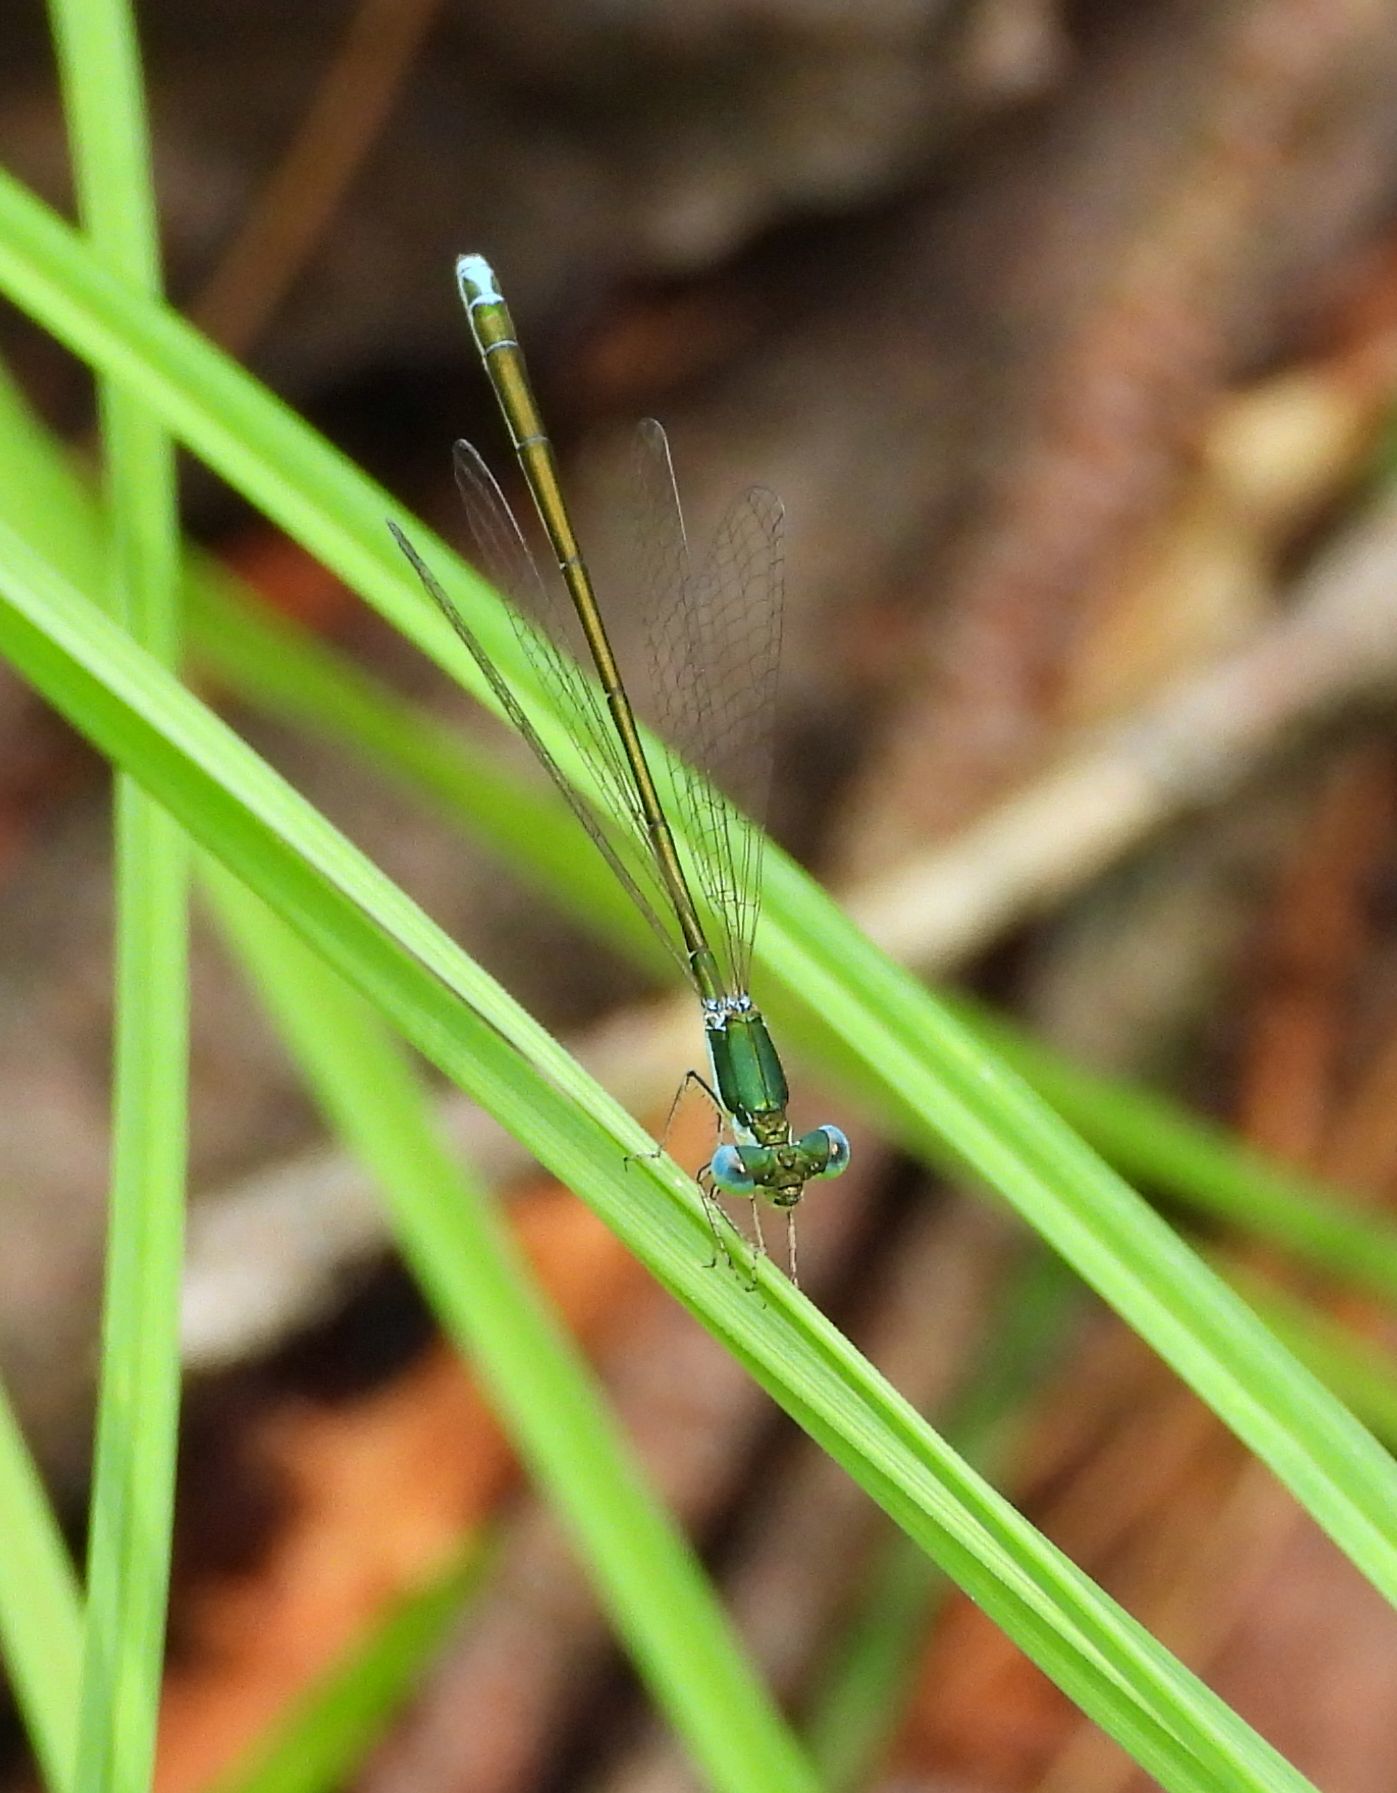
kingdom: Animalia
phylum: Arthropoda
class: Insecta
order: Odonata
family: Coenagrionidae
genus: Nehalennia
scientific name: Nehalennia irene
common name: Sedge sprite
